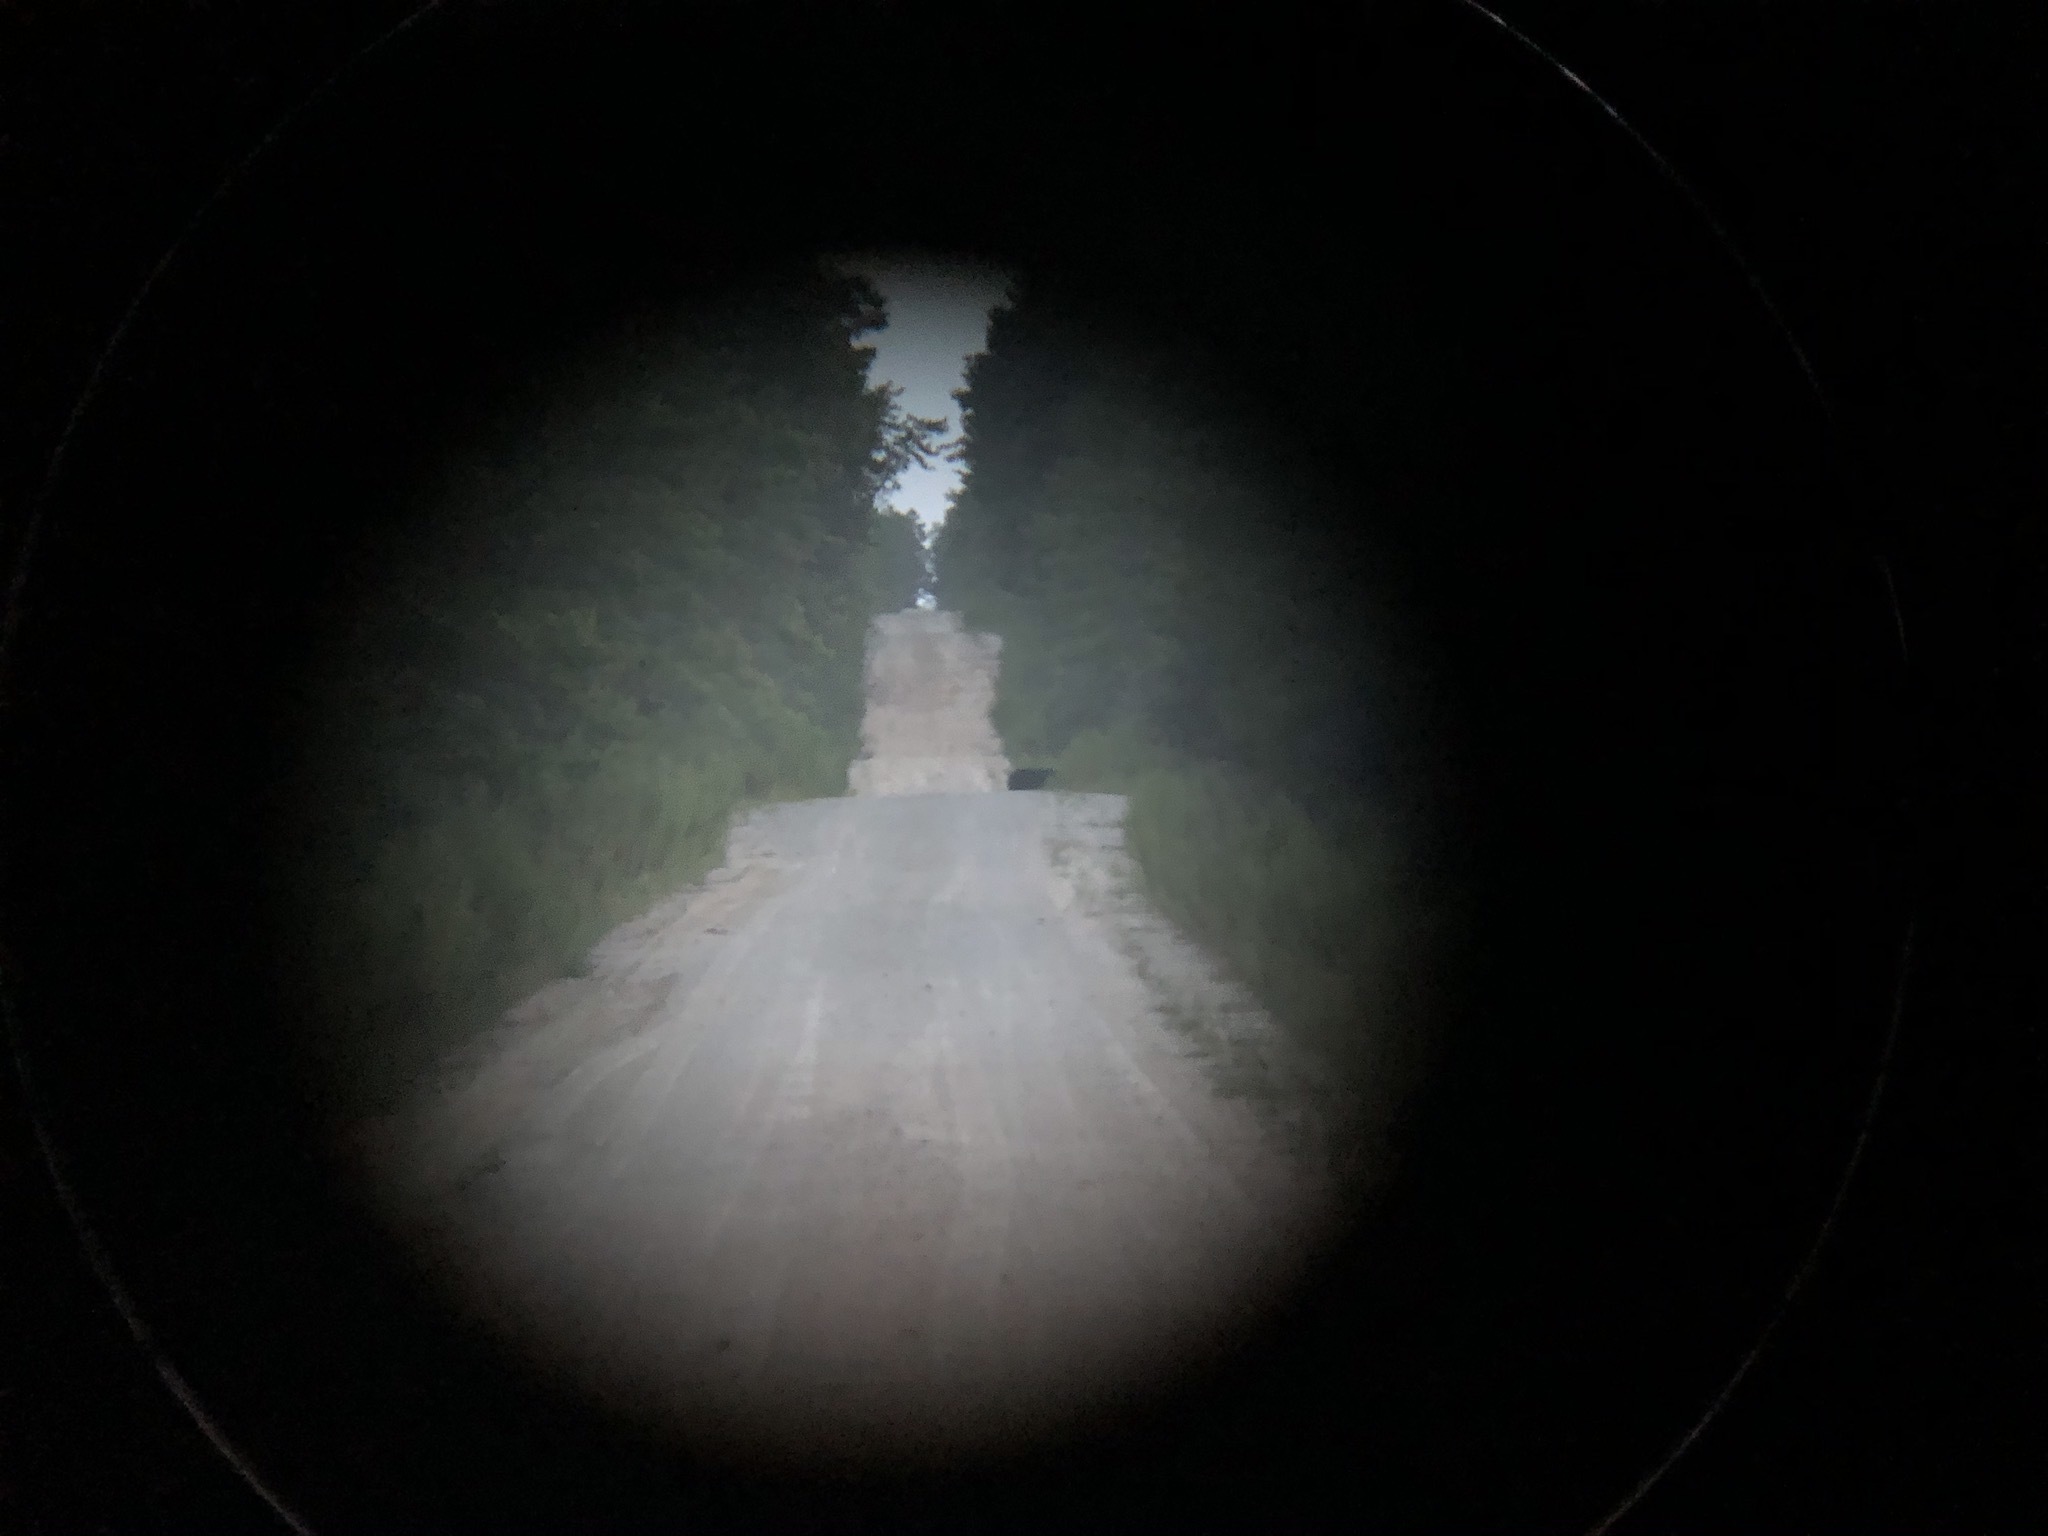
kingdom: Animalia
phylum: Chordata
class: Mammalia
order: Carnivora
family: Ursidae
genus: Ursus
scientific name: Ursus americanus
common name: American black bear
